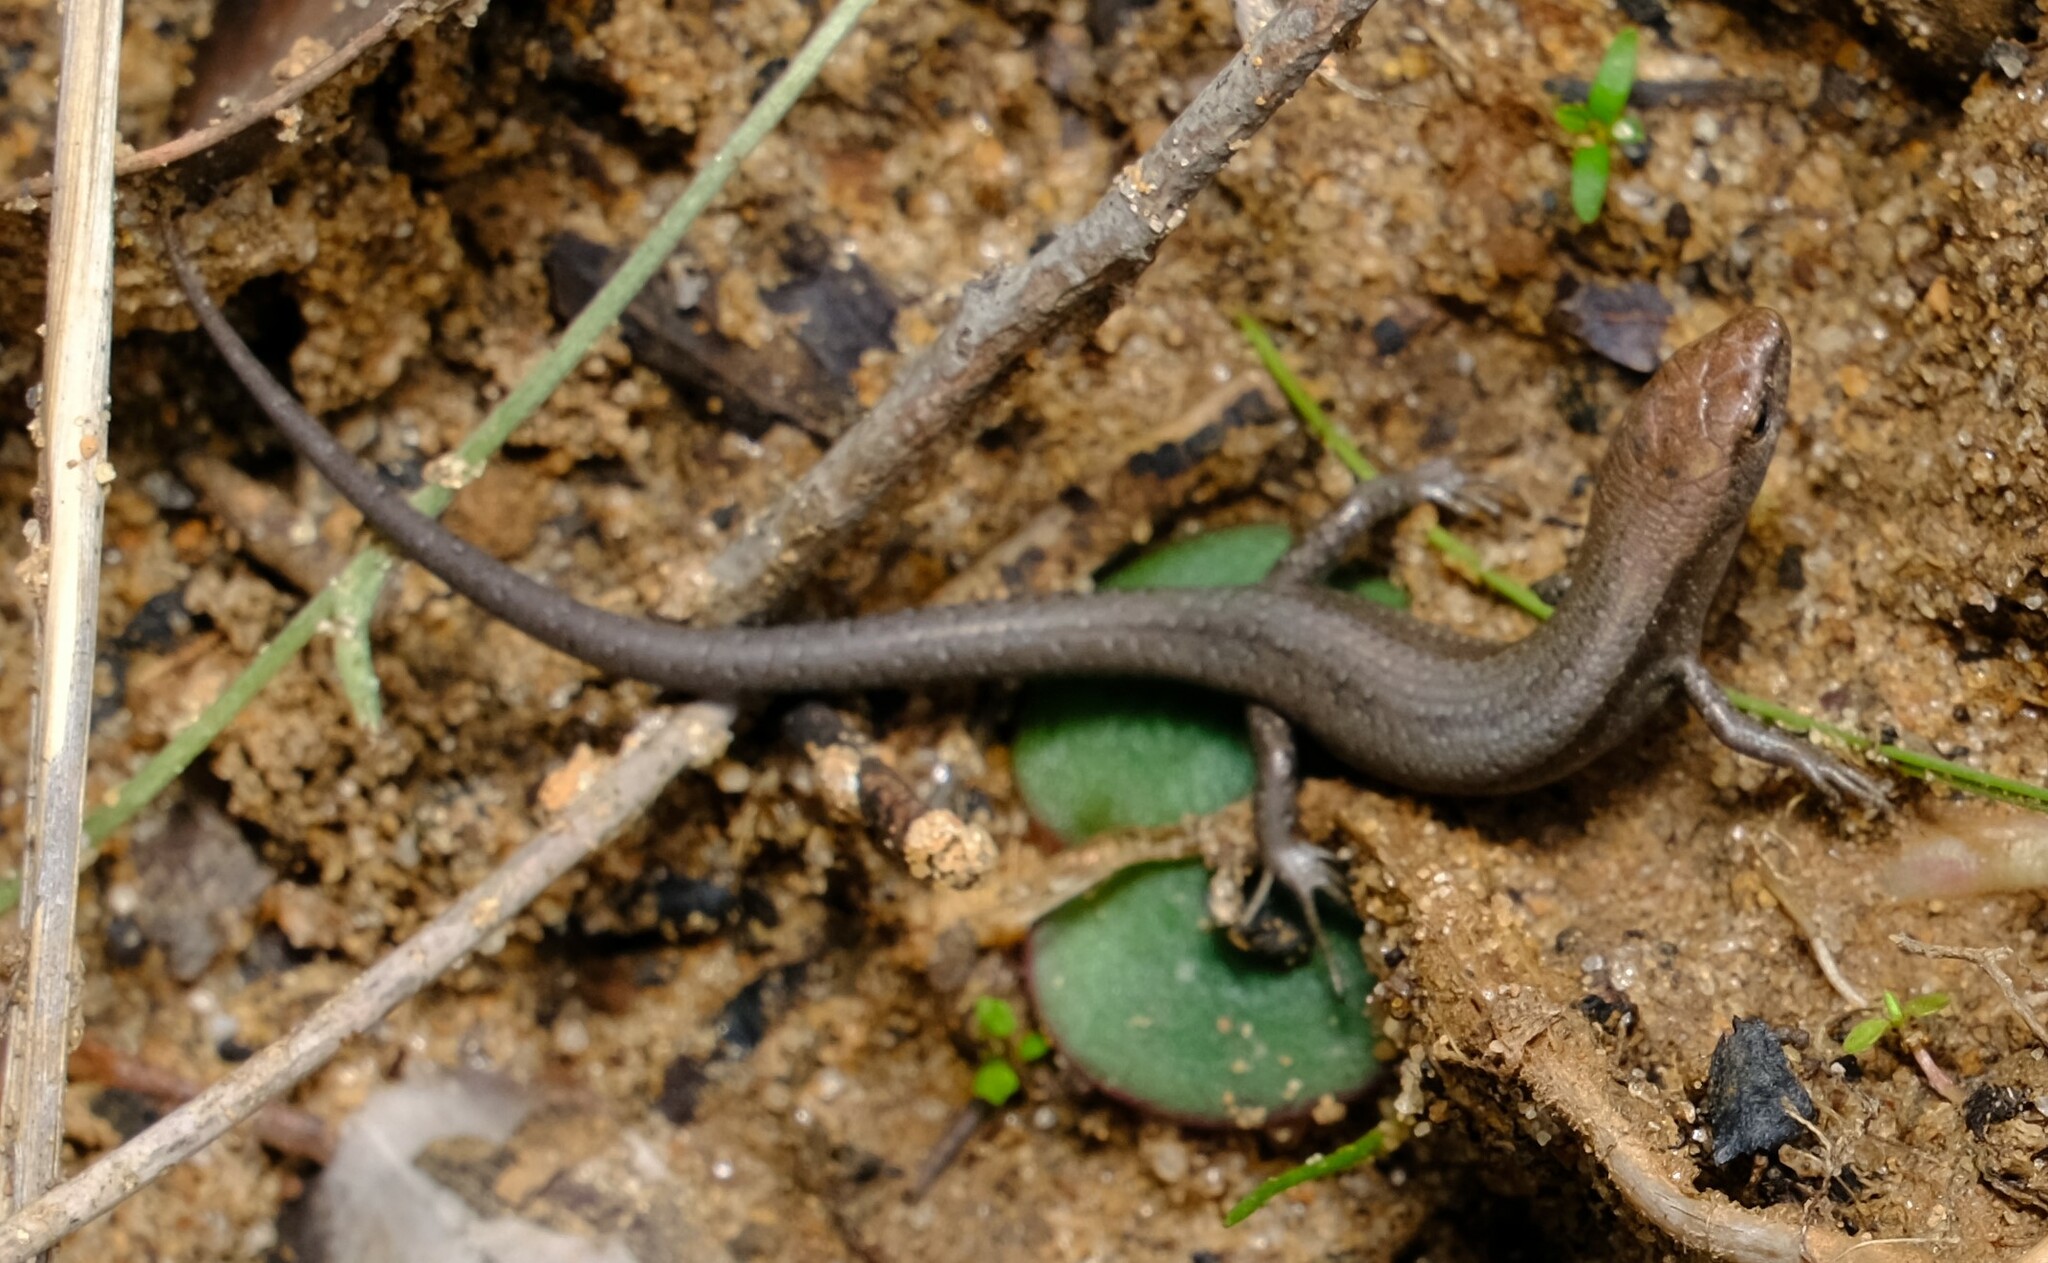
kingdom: Animalia
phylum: Chordata
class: Squamata
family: Scincidae
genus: Lampropholis
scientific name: Lampropholis guichenoti
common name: Garden skink
